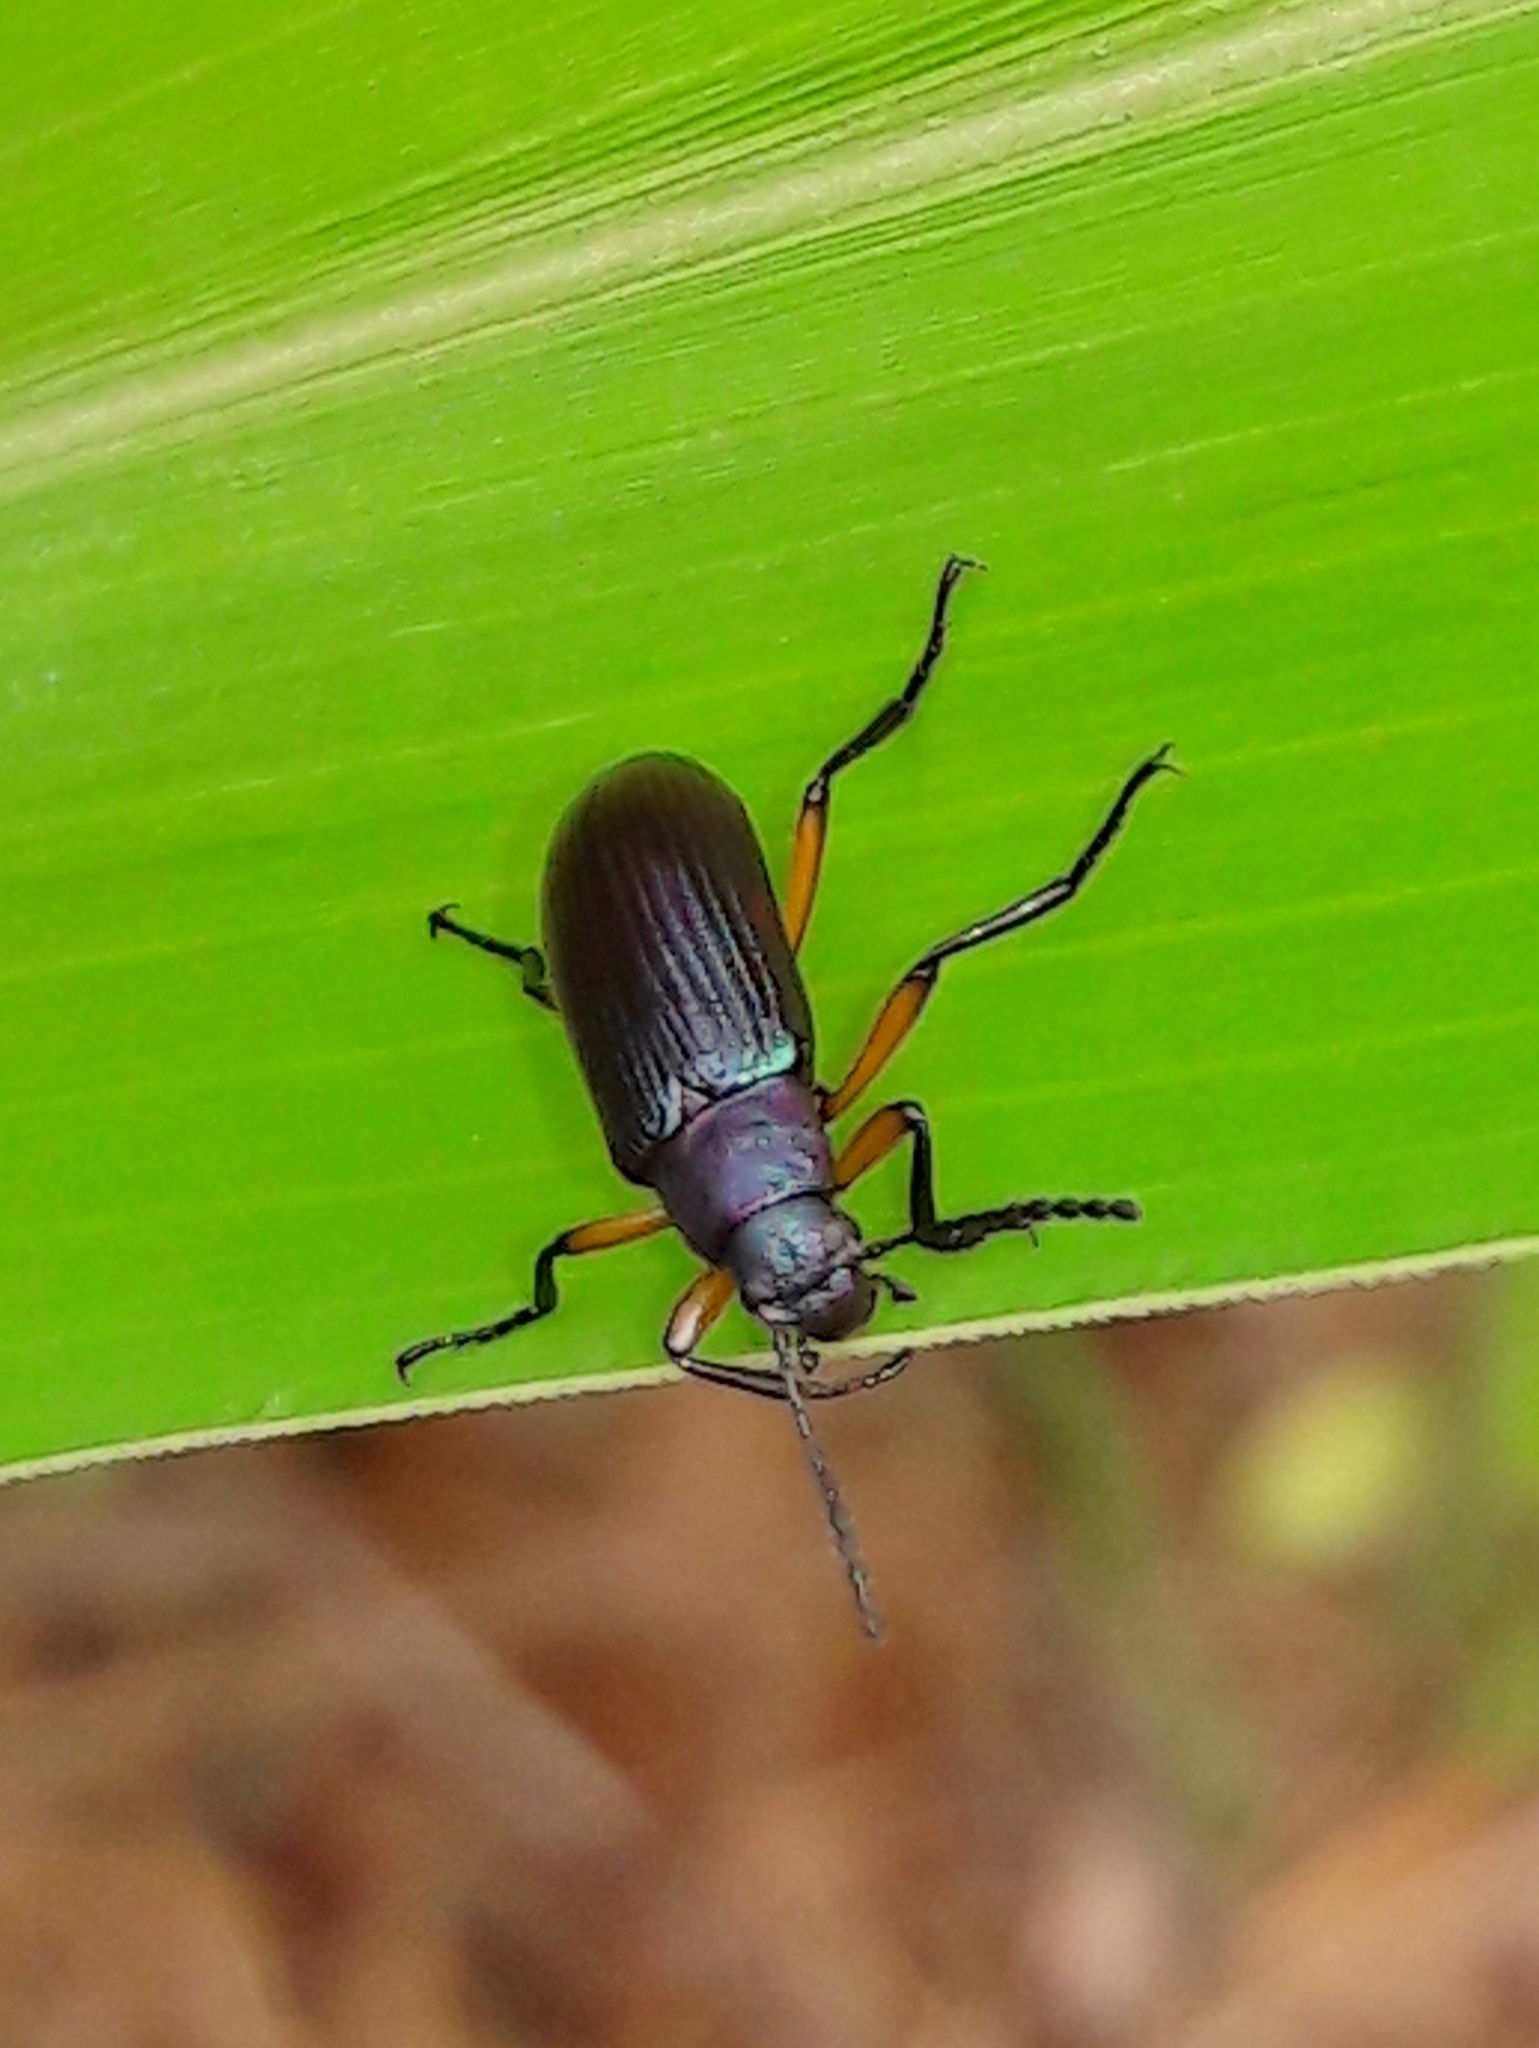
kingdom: Animalia
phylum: Arthropoda
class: Insecta
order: Coleoptera
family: Tenebrionidae
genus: Strongylium
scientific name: Strongylium
